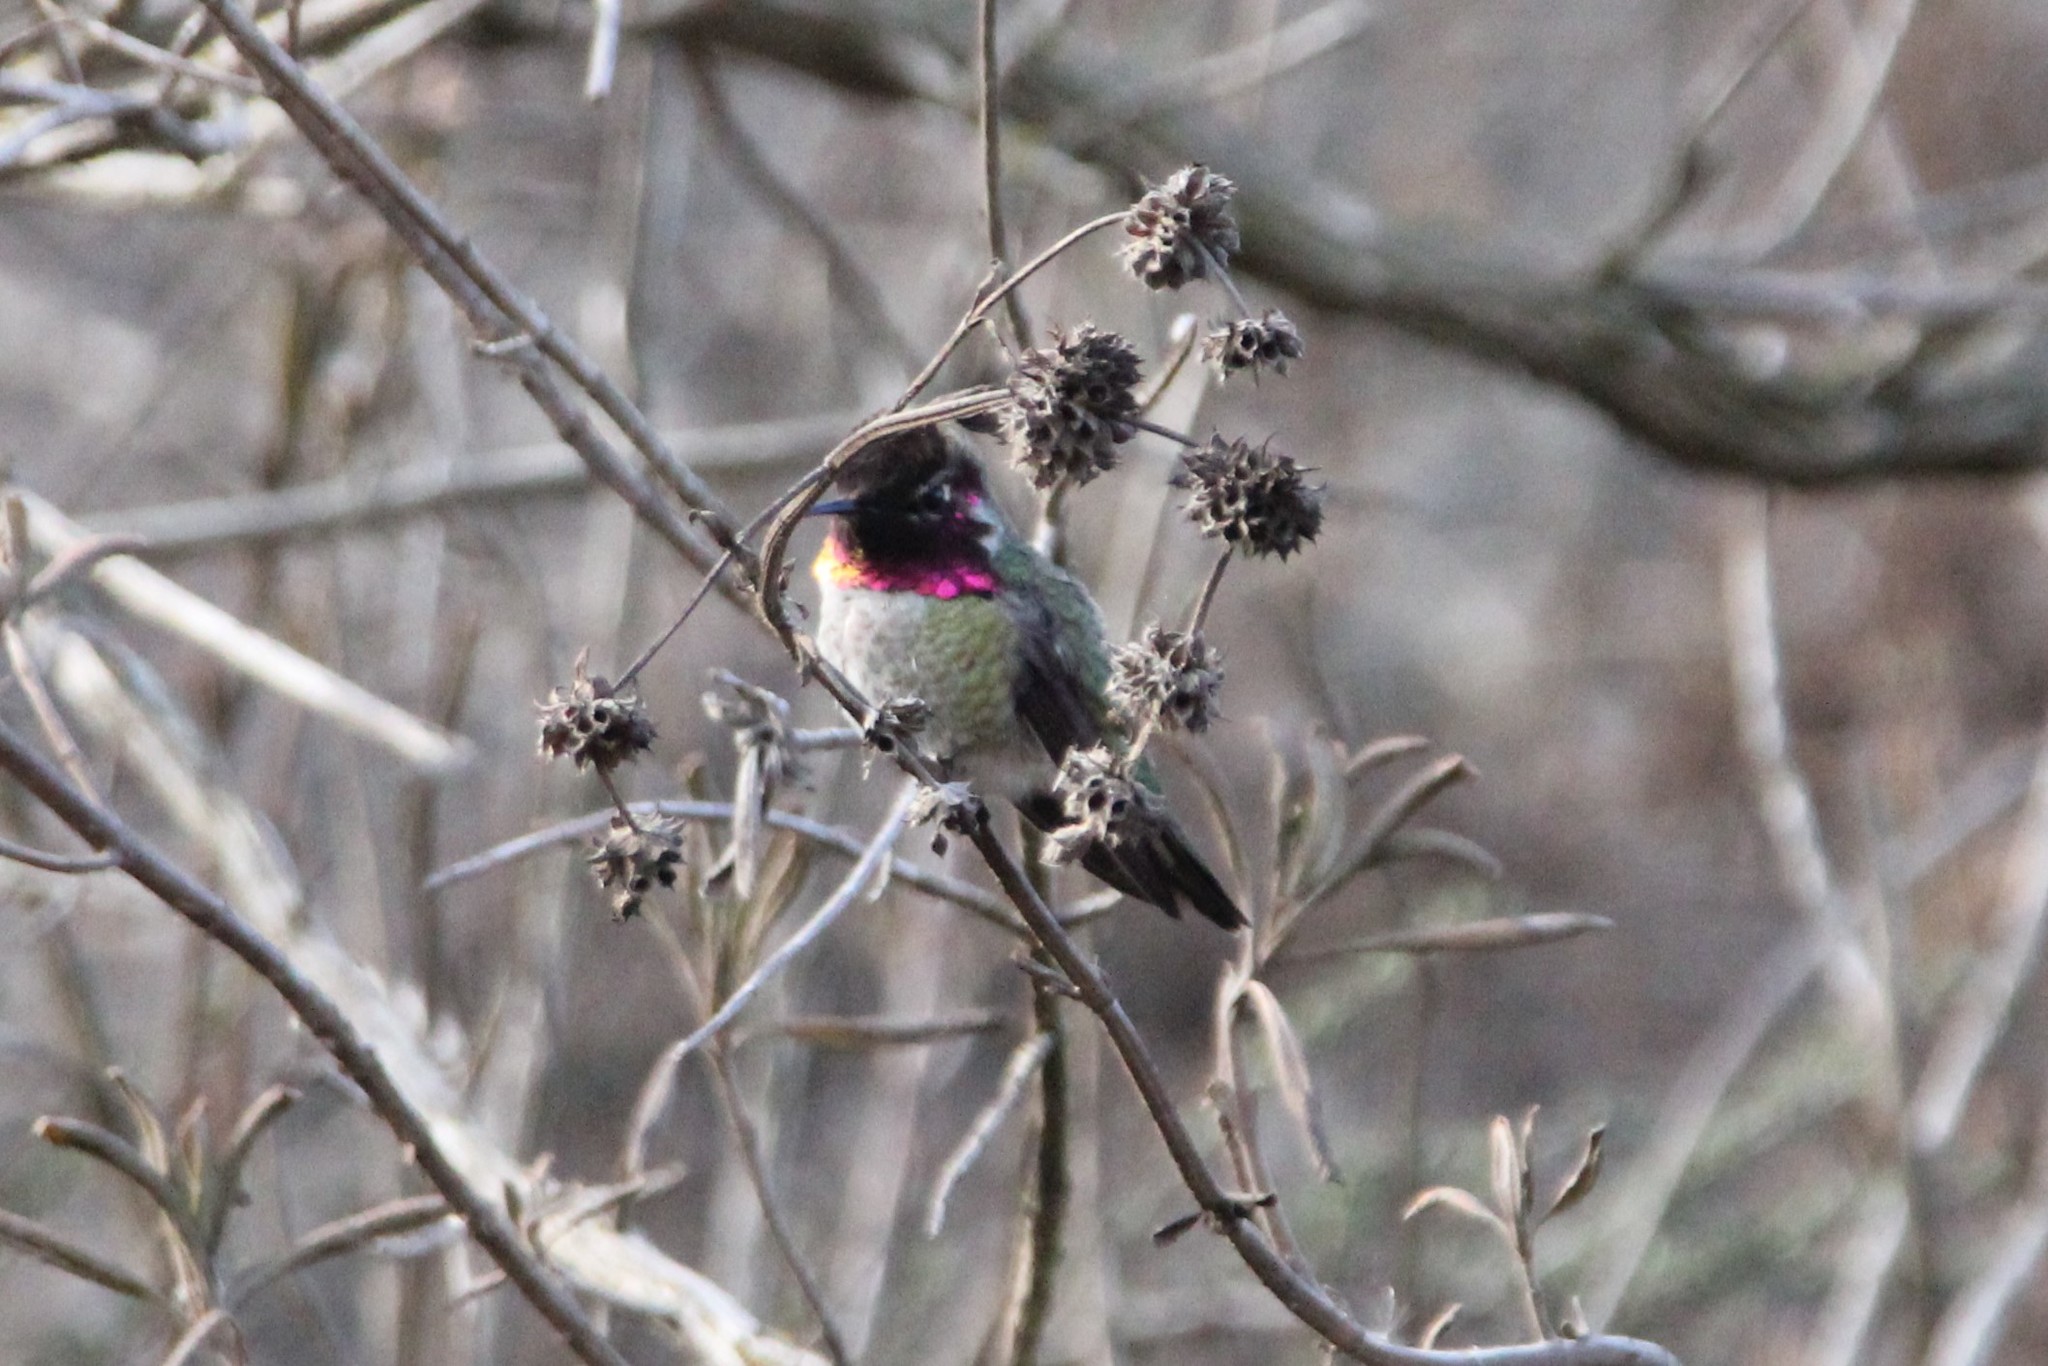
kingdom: Animalia
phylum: Chordata
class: Aves
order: Apodiformes
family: Trochilidae
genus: Calypte
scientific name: Calypte anna
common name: Anna's hummingbird
